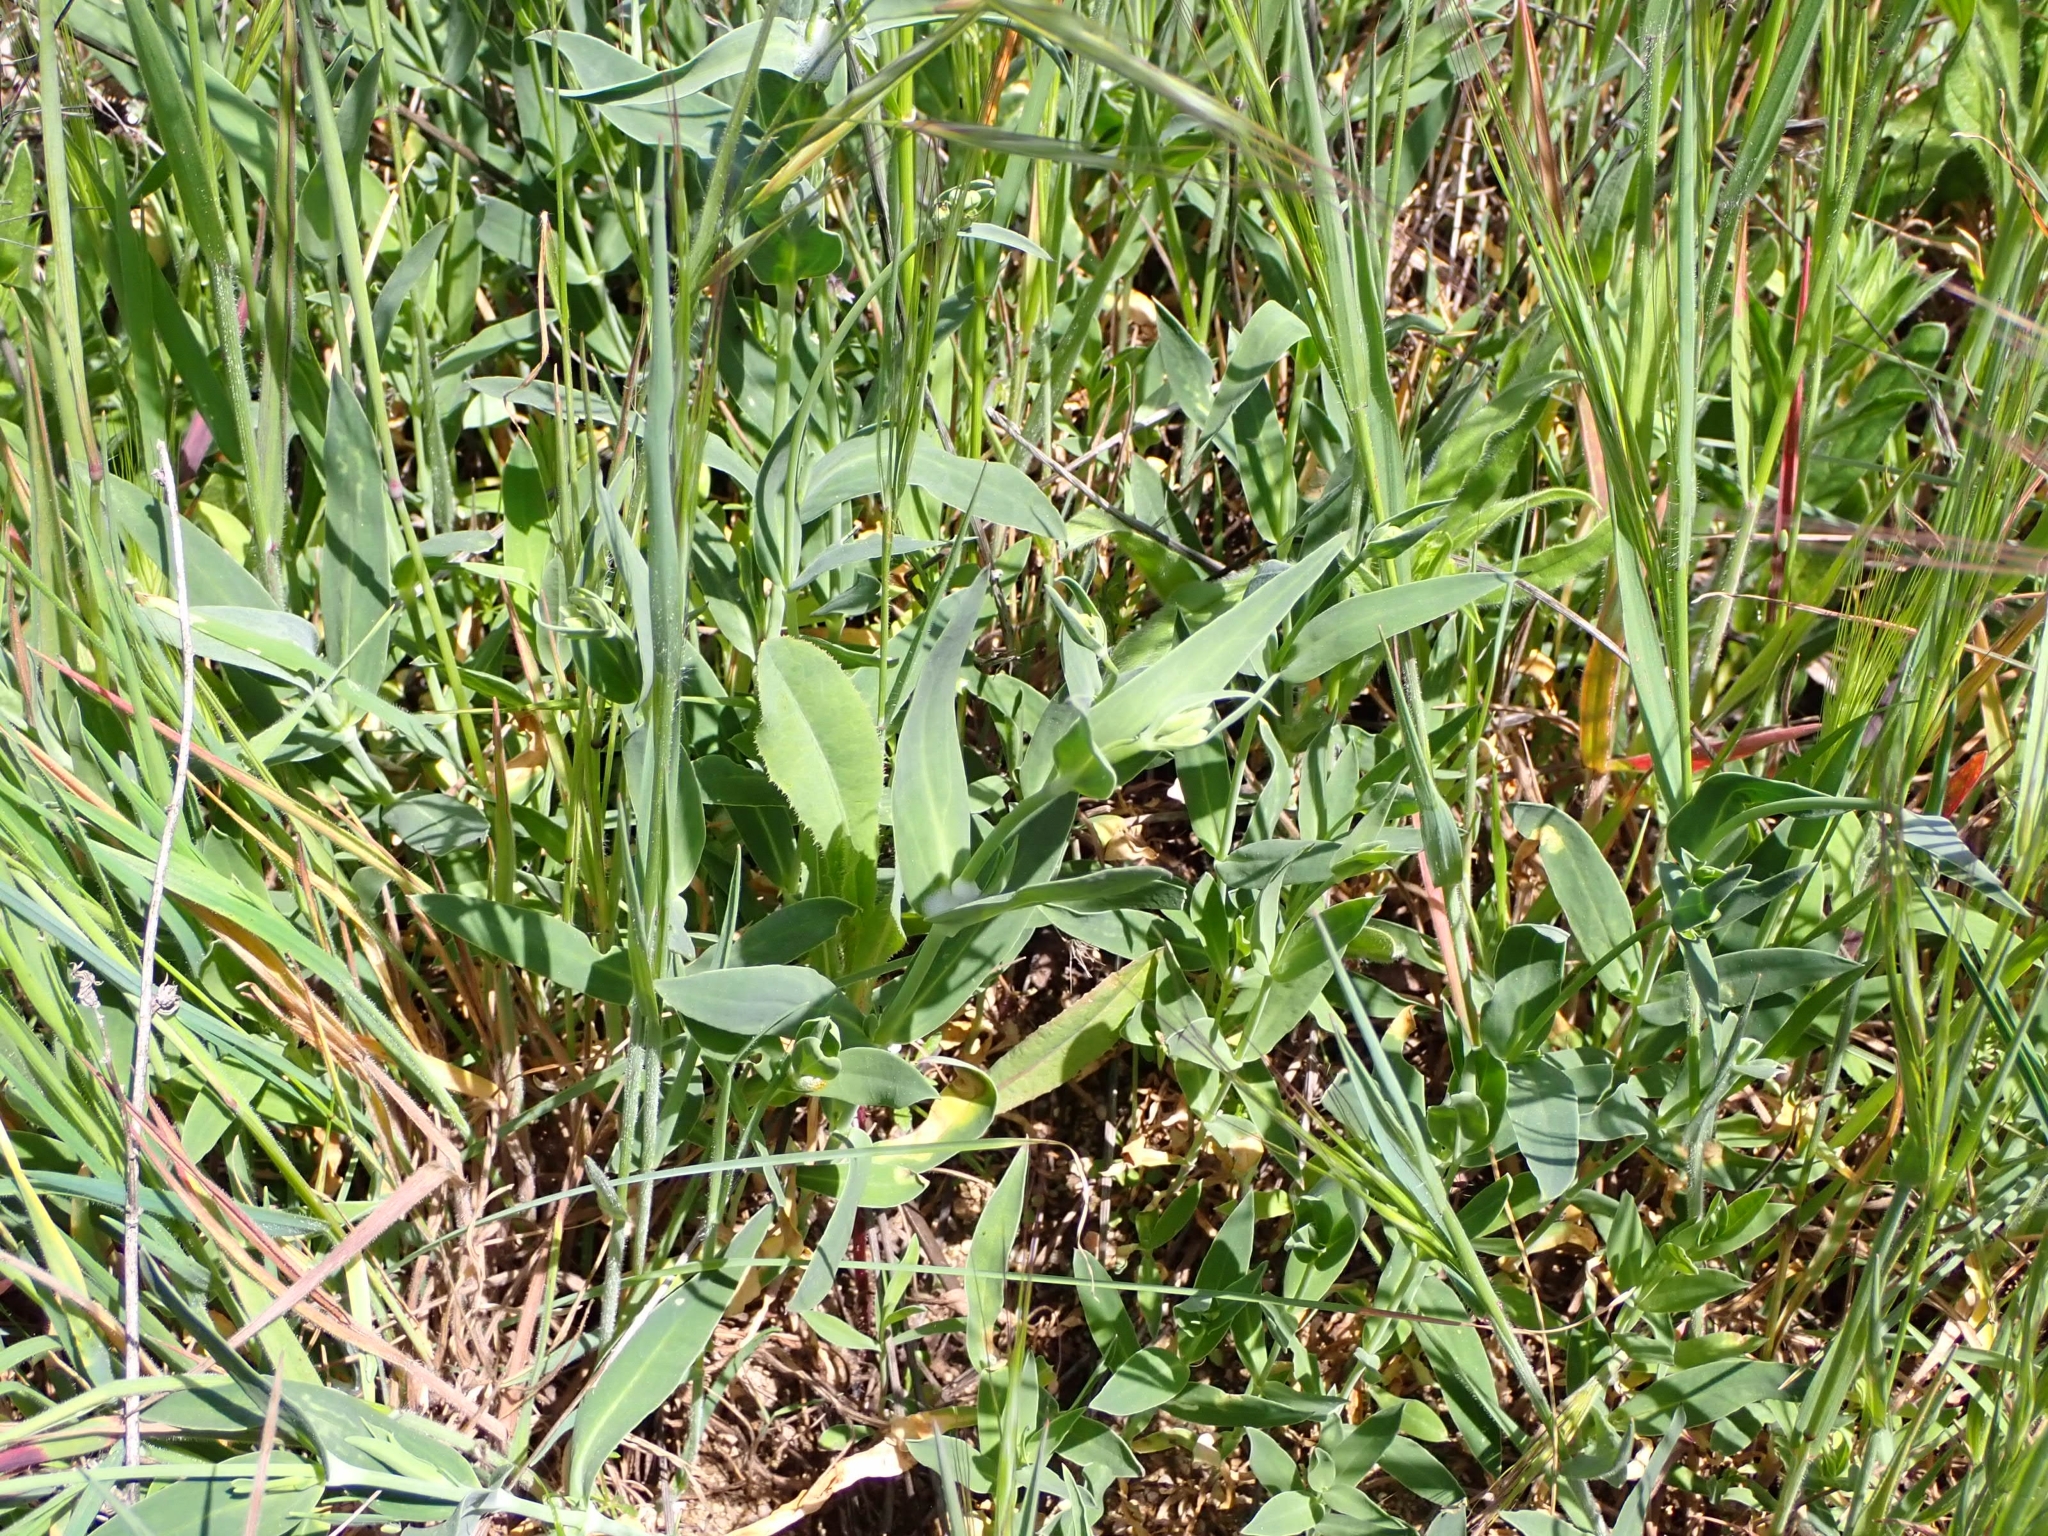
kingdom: Plantae
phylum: Tracheophyta
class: Magnoliopsida
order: Caryophyllales
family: Caryophyllaceae
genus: Silene
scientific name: Silene vulgaris
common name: Bladder campion
